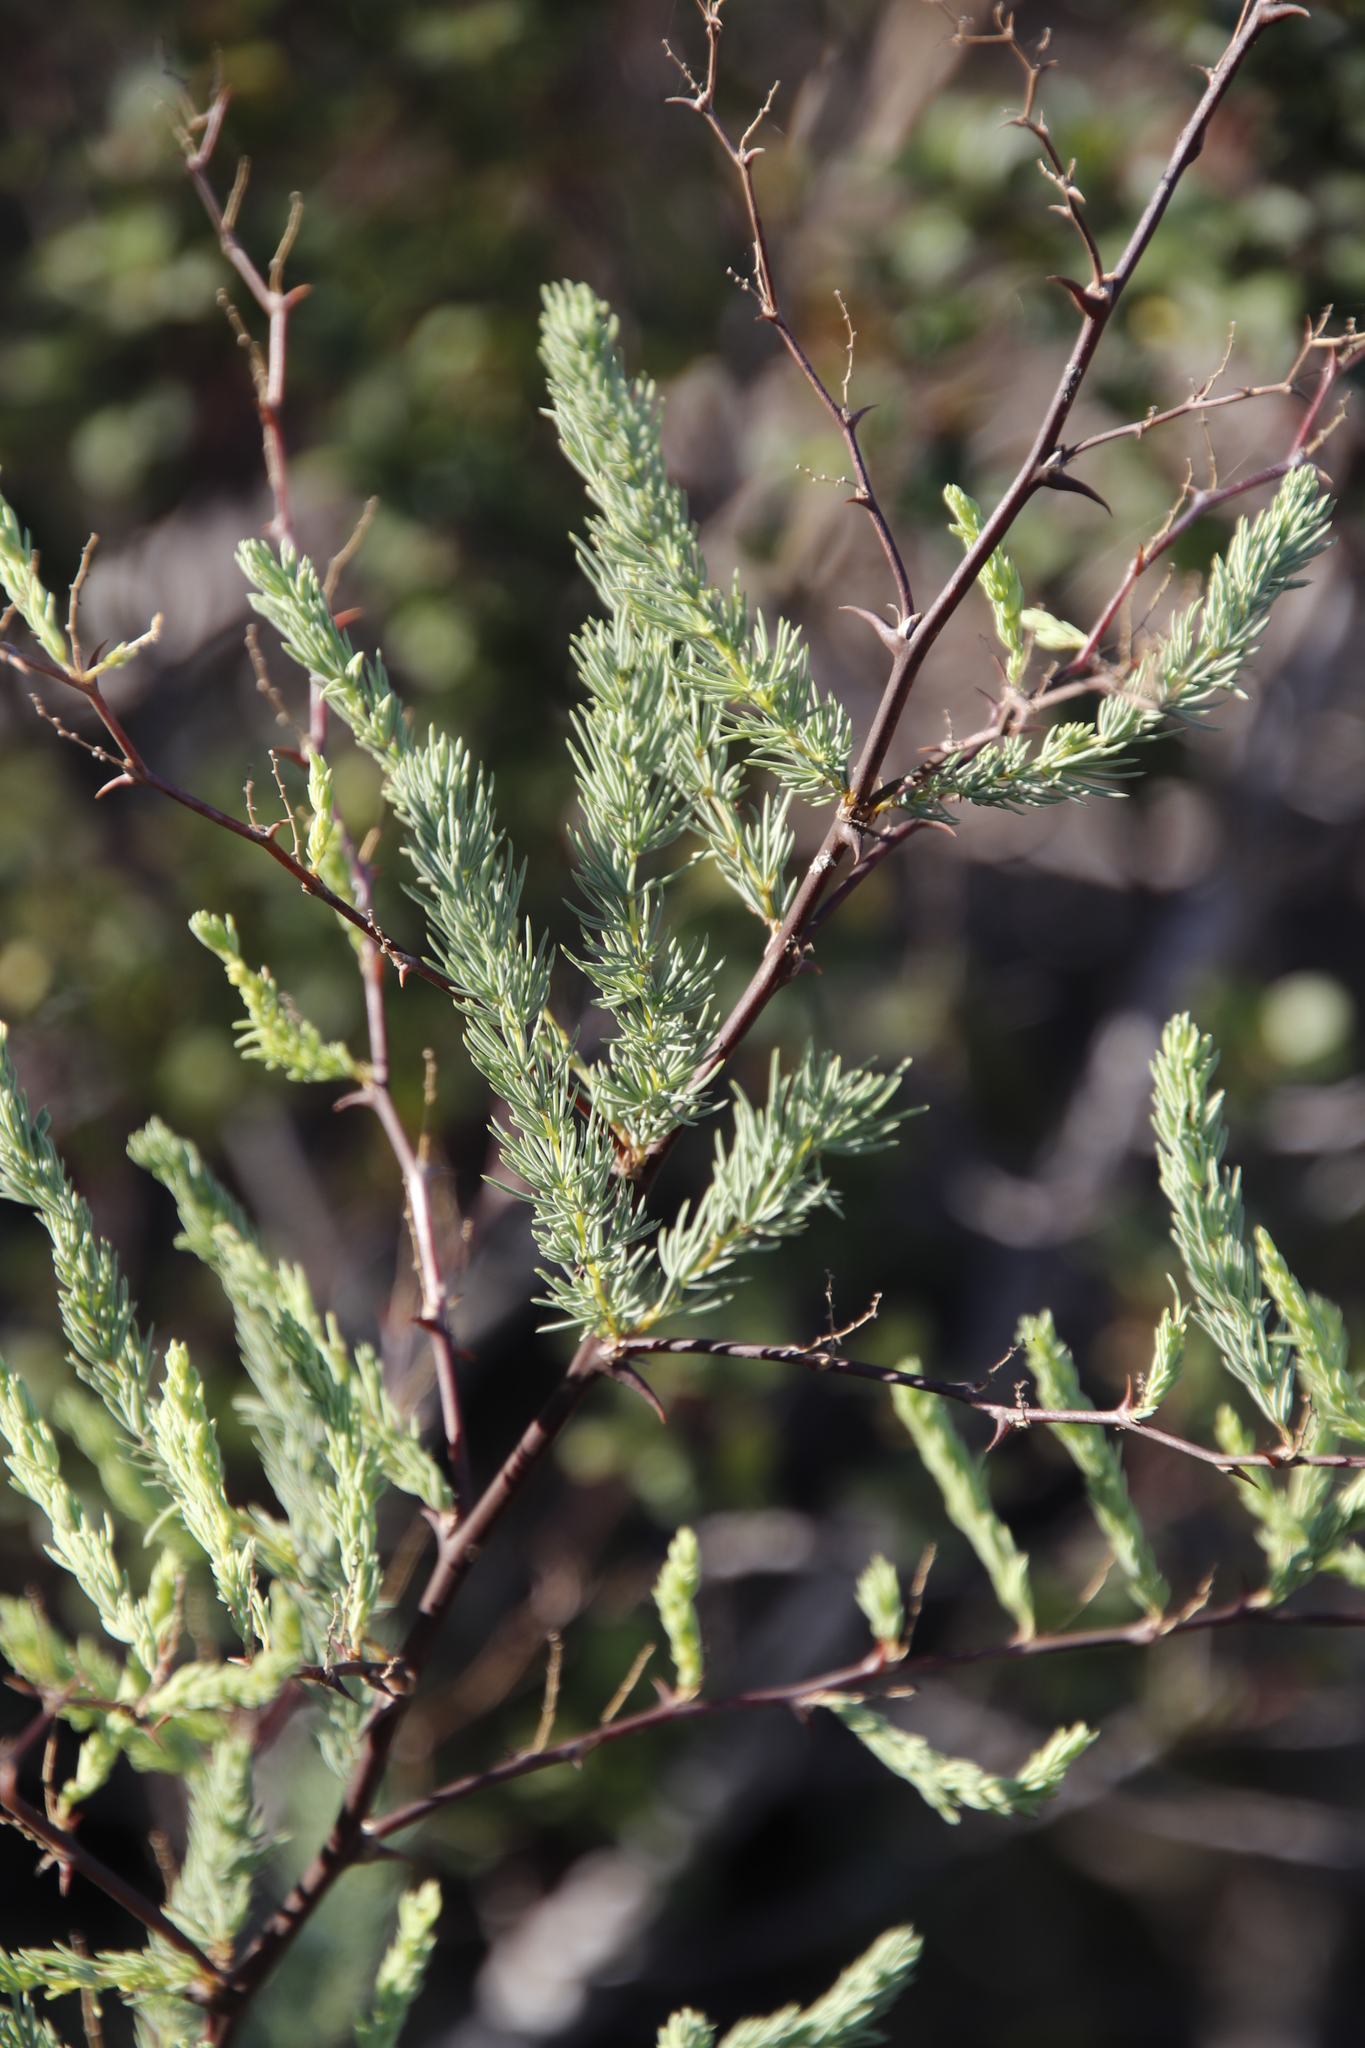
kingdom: Plantae
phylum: Tracheophyta
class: Liliopsida
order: Asparagales
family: Asparagaceae
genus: Asparagus
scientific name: Asparagus rubicundus
